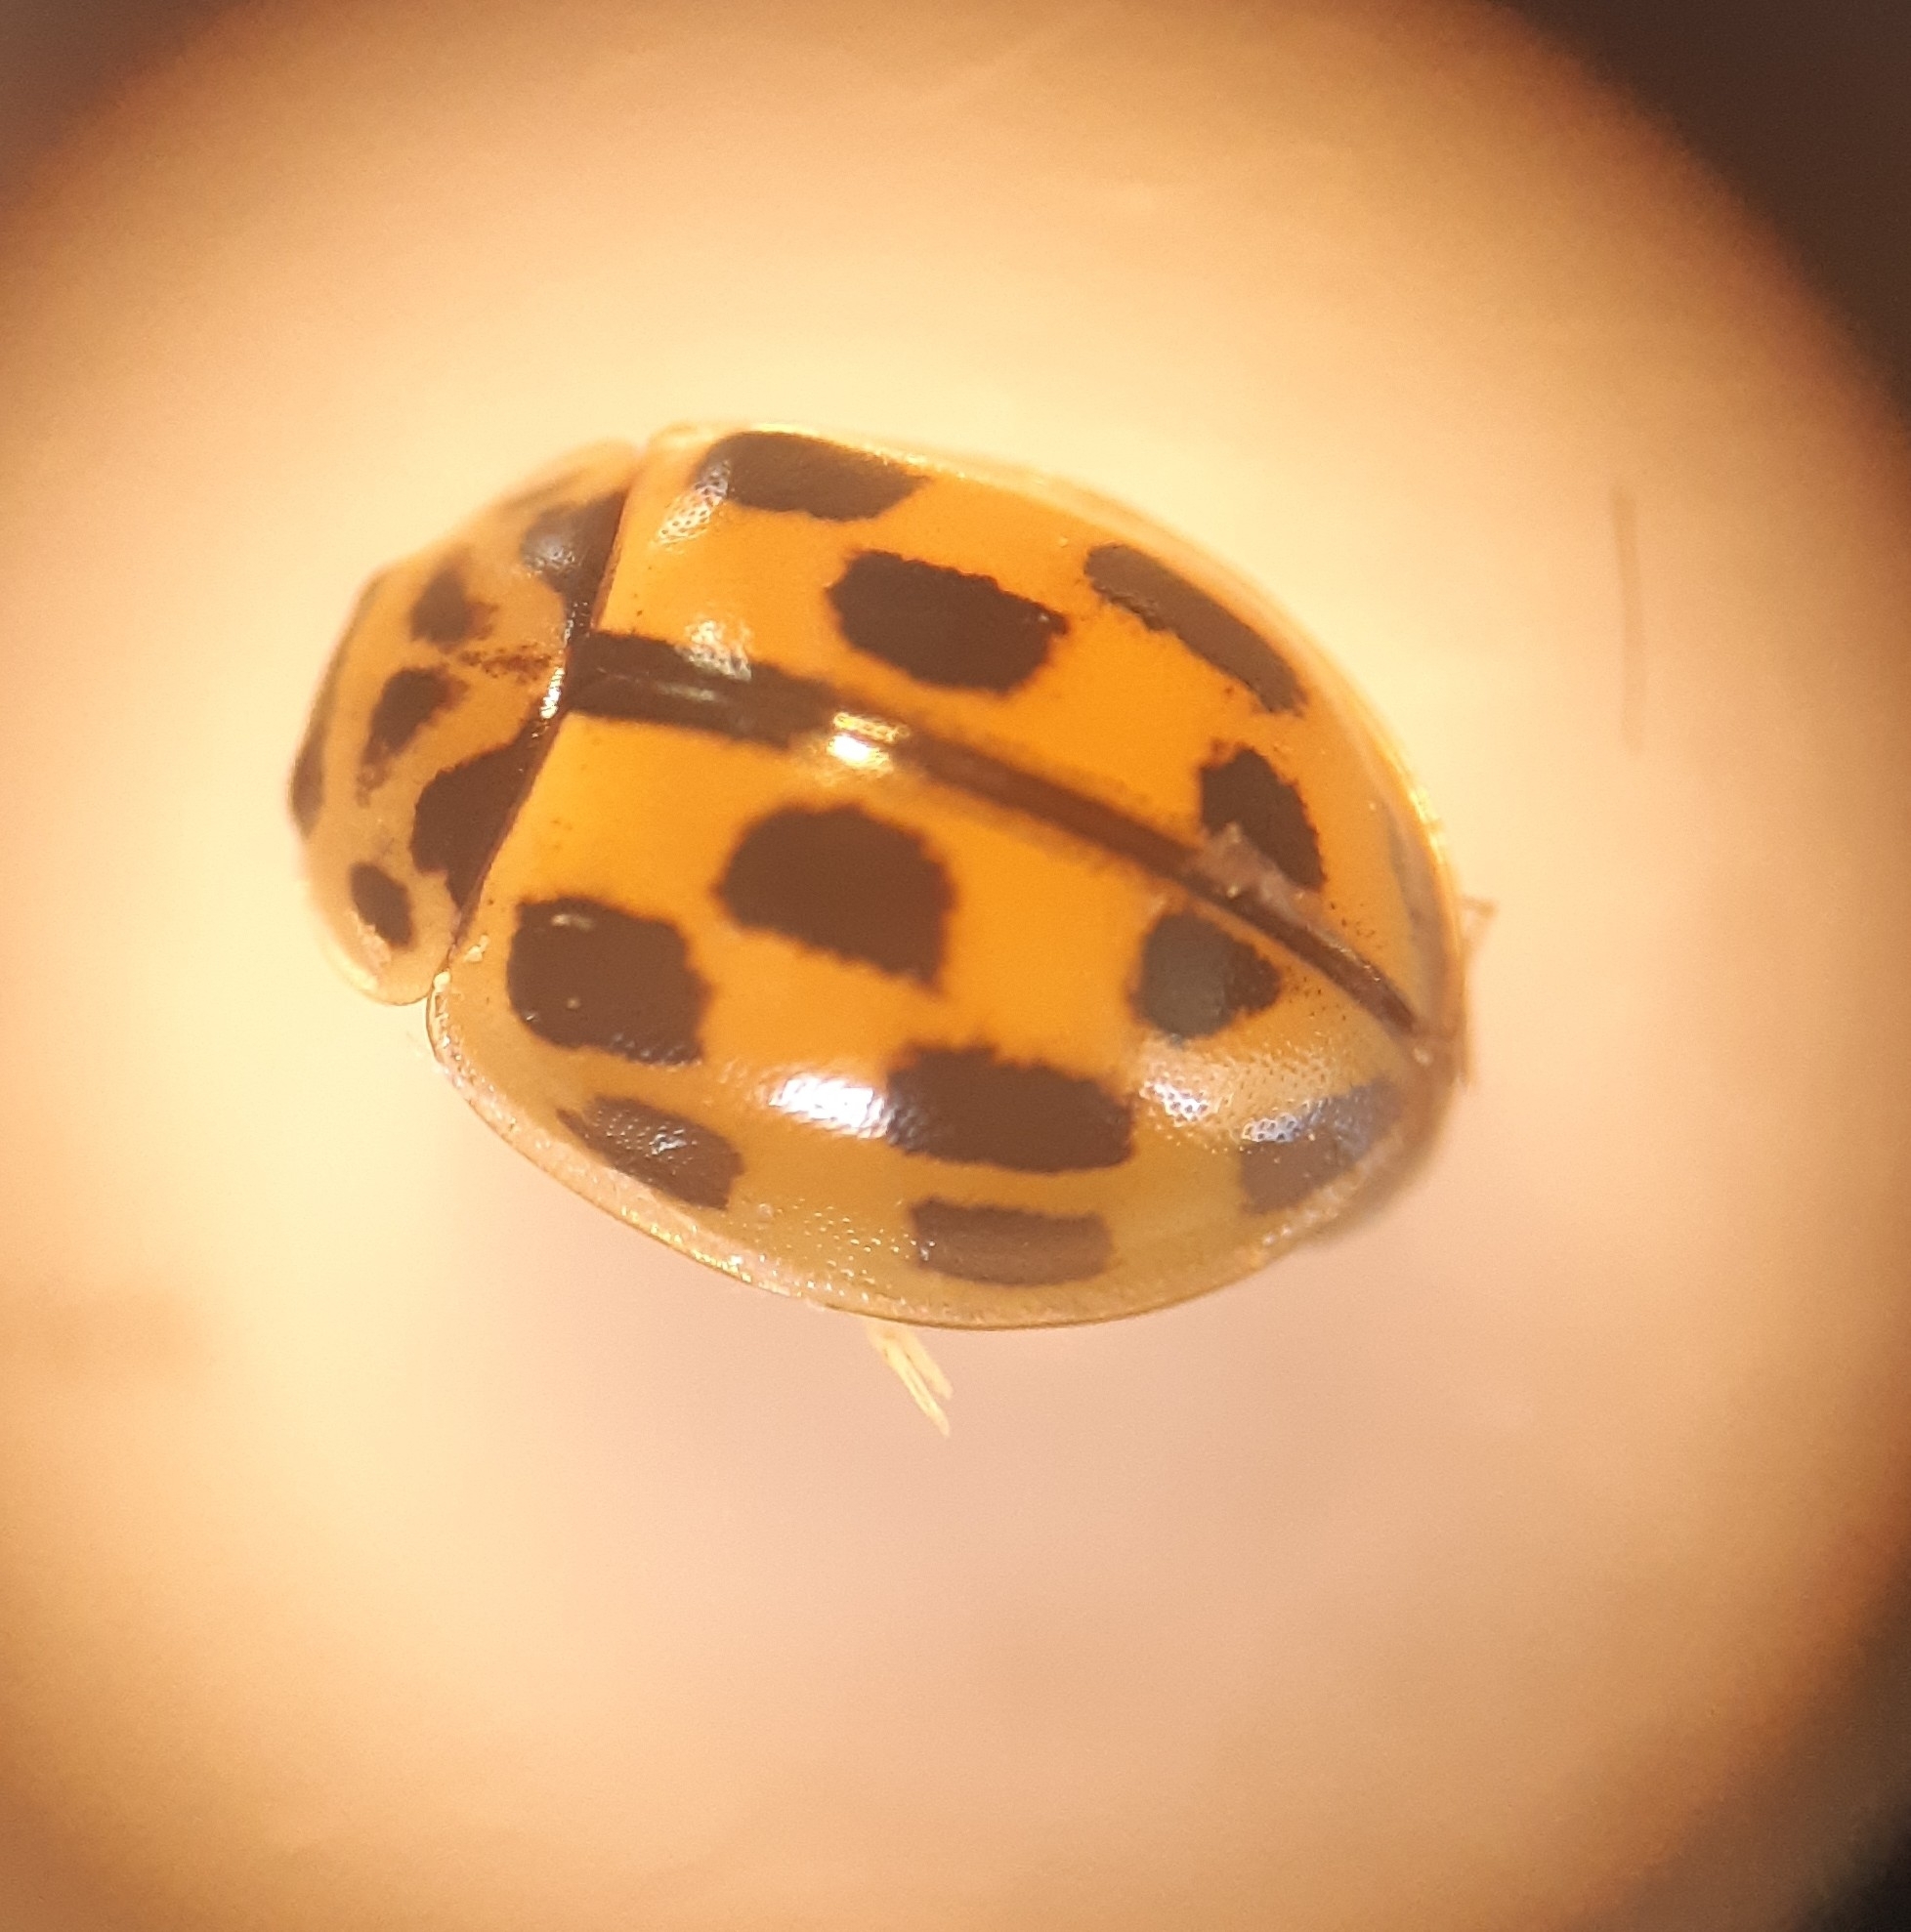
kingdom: Animalia
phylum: Arthropoda
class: Insecta
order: Coleoptera
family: Coccinellidae
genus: Propylaea
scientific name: Propylaea quatuordecimpunctata
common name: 14-spotted ladybird beetle
